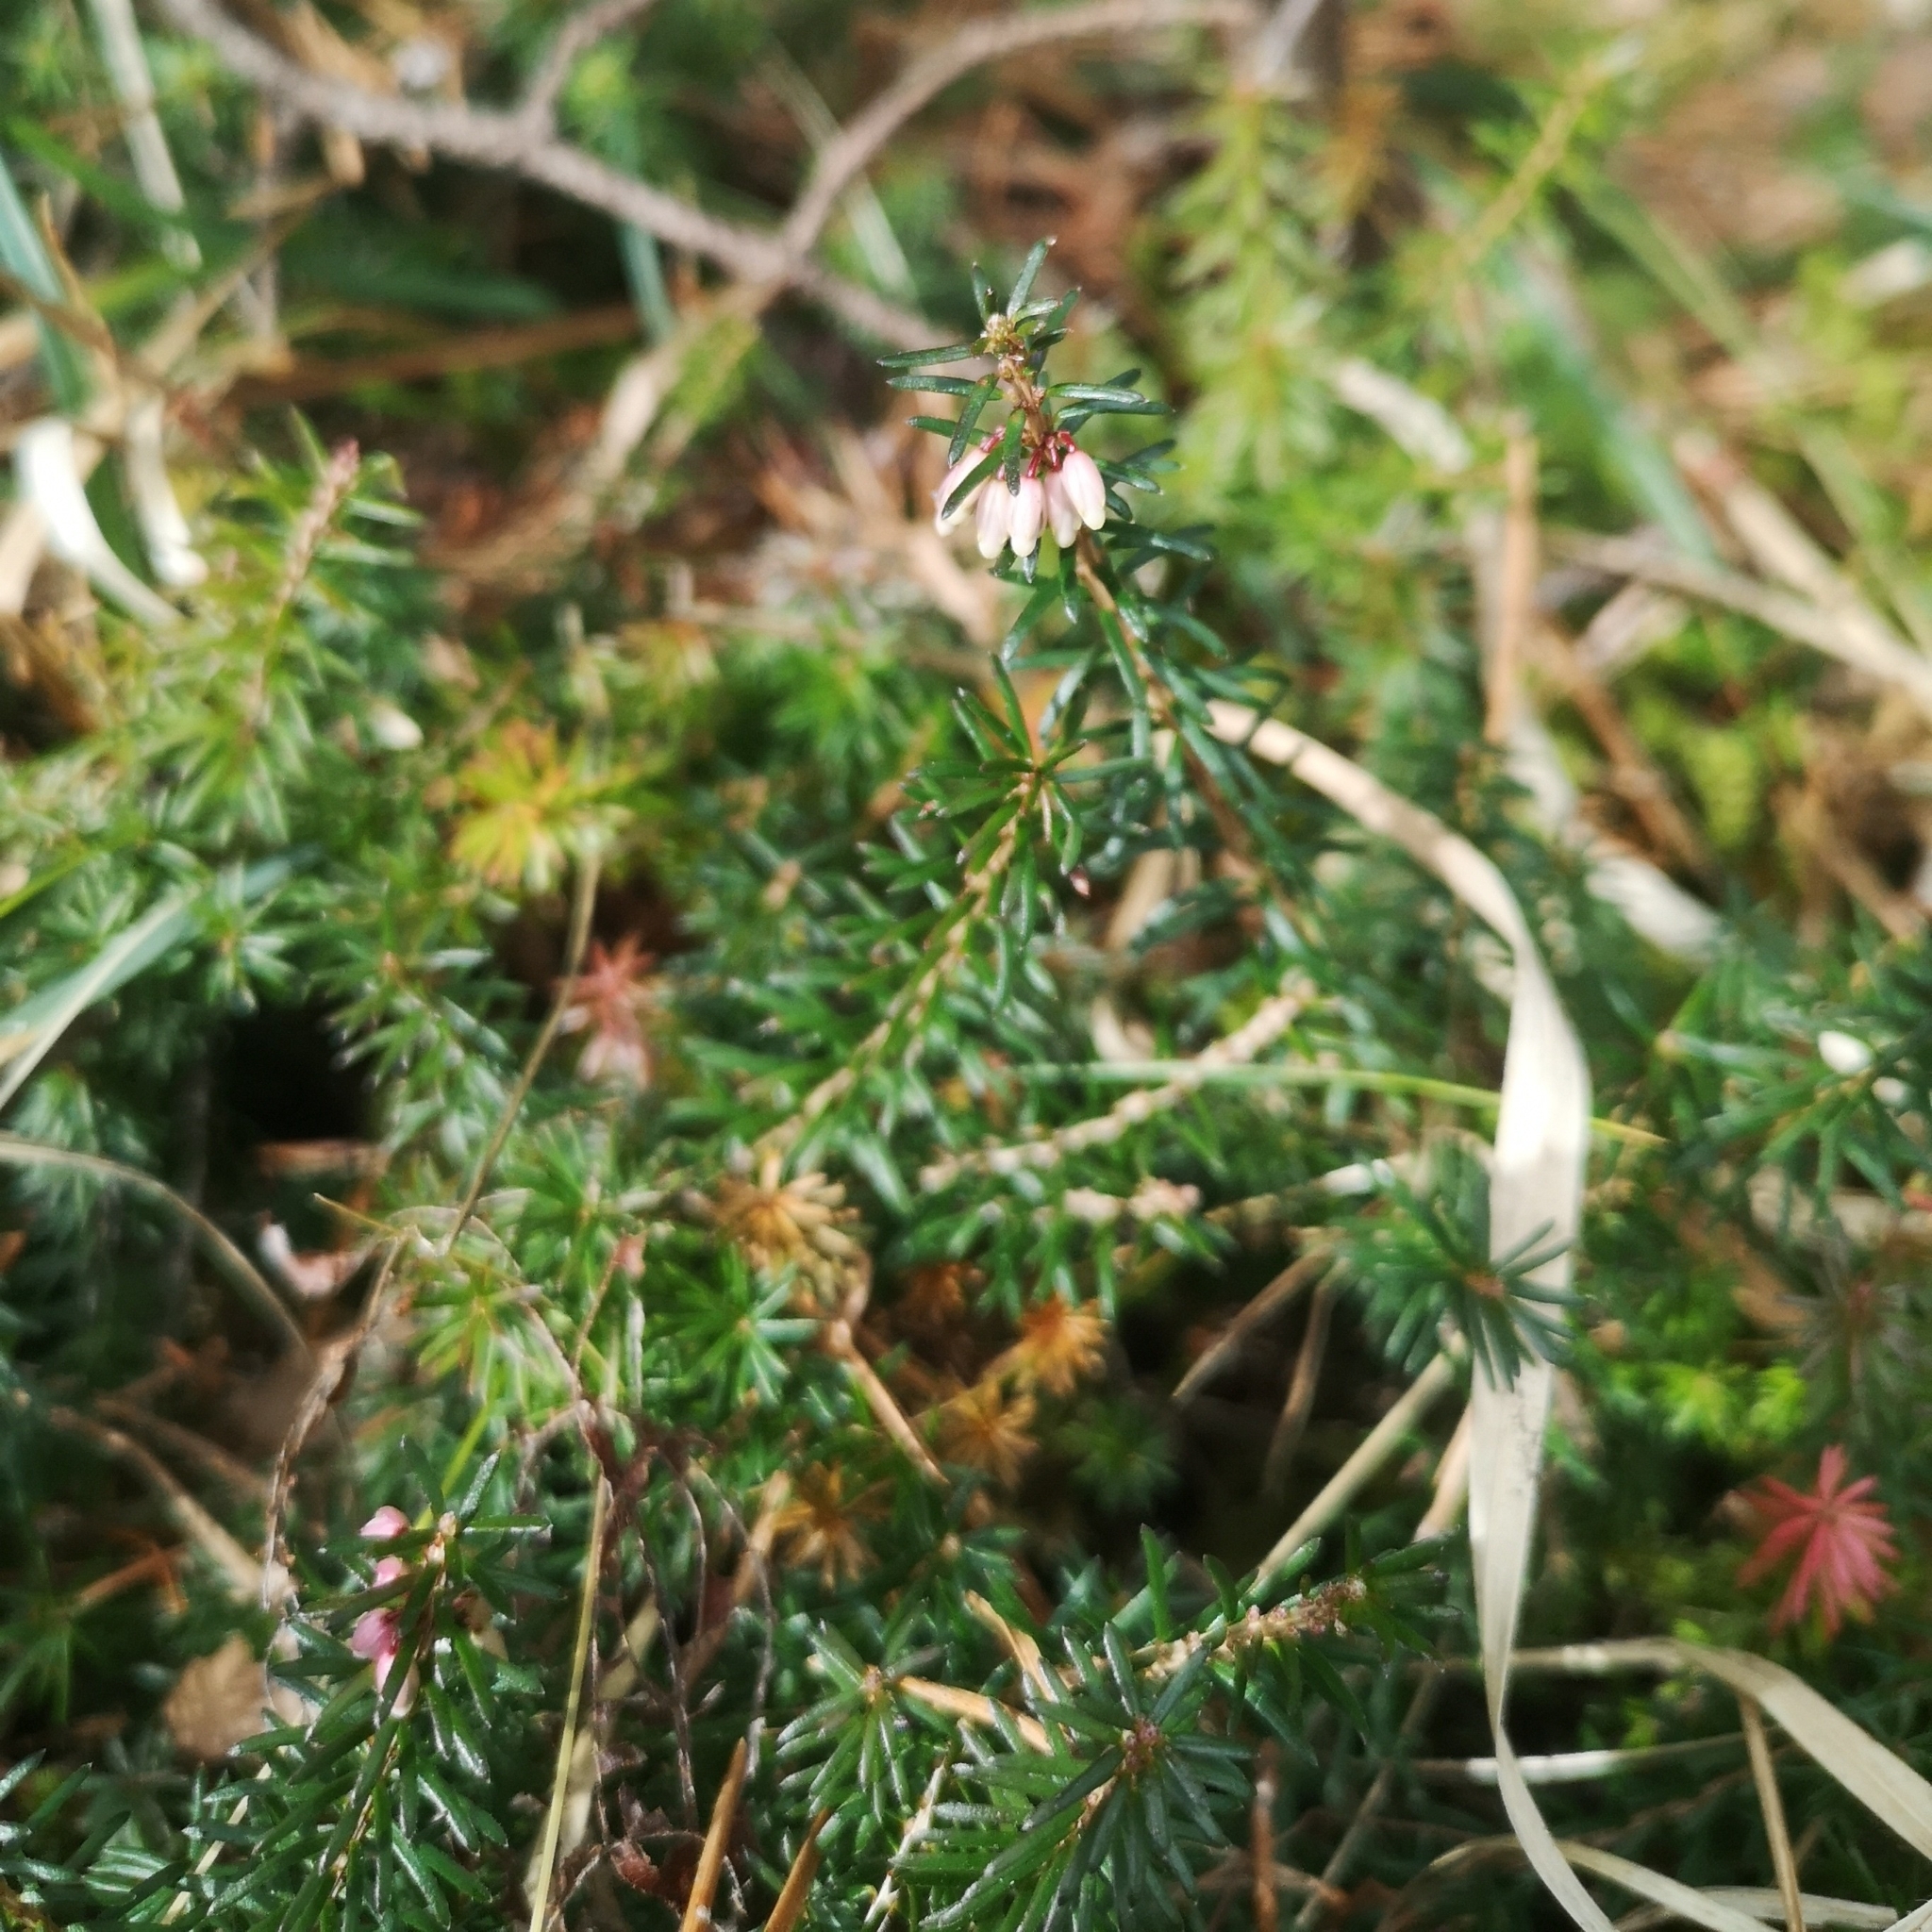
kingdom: Plantae
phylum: Tracheophyta
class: Magnoliopsida
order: Ericales
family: Ericaceae
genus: Erica
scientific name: Erica carnea
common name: Winter heath
